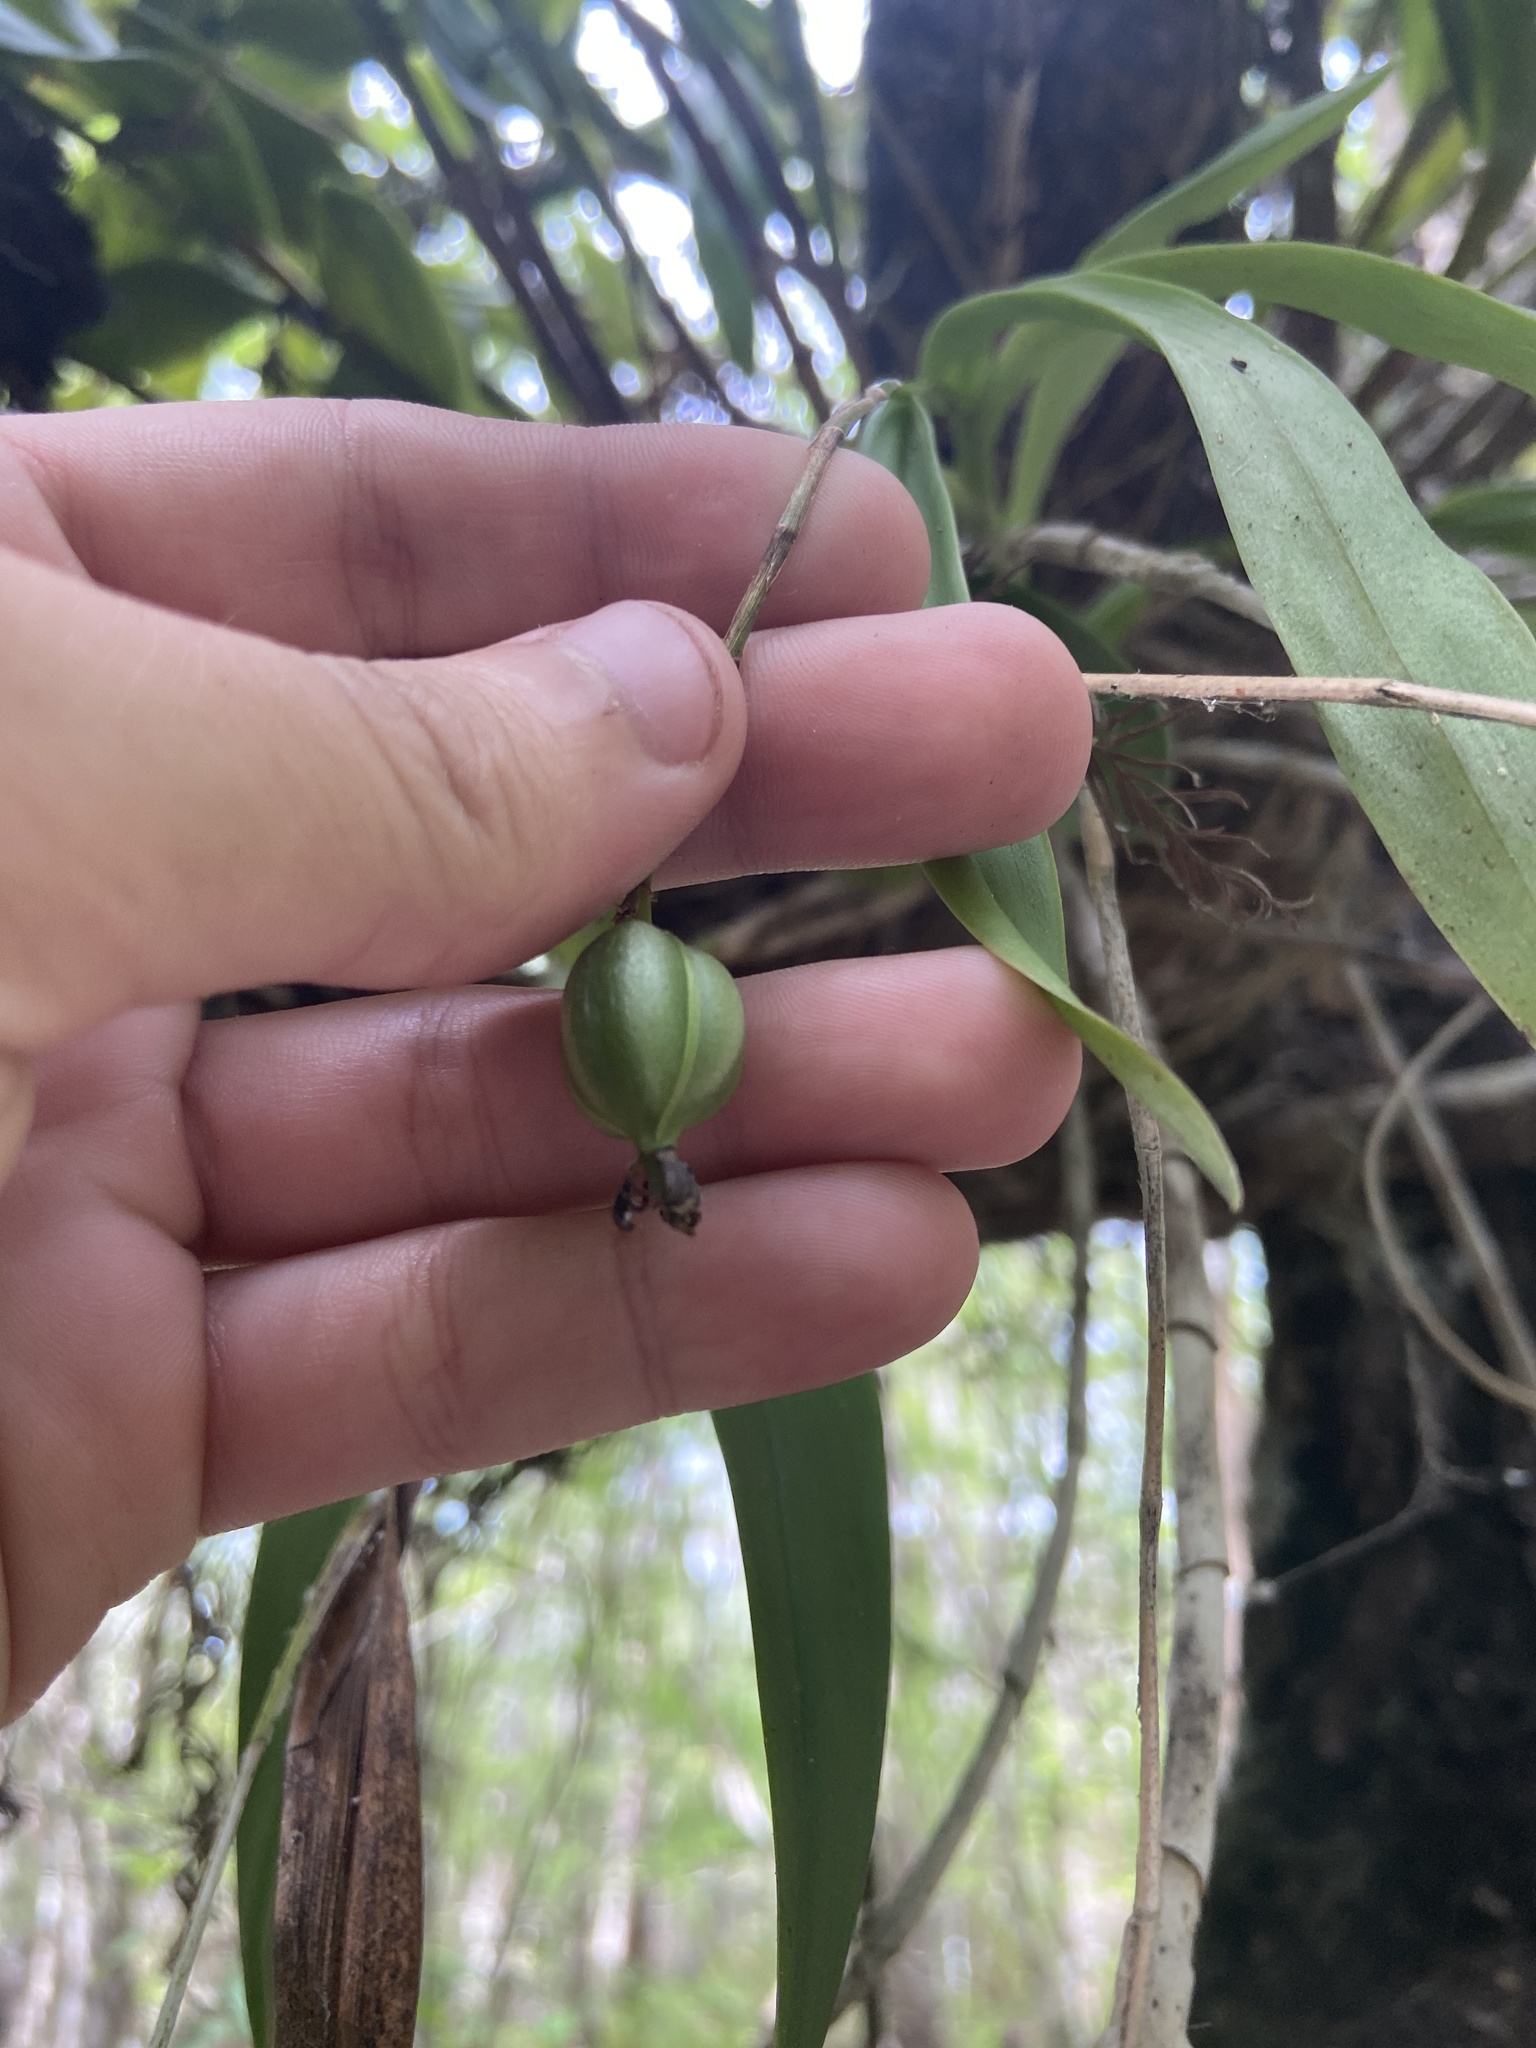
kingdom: Plantae
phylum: Tracheophyta
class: Liliopsida
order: Asparagales
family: Orchidaceae
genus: Epidendrum
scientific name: Epidendrum amphistomum
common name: Big-mouth star orchid
